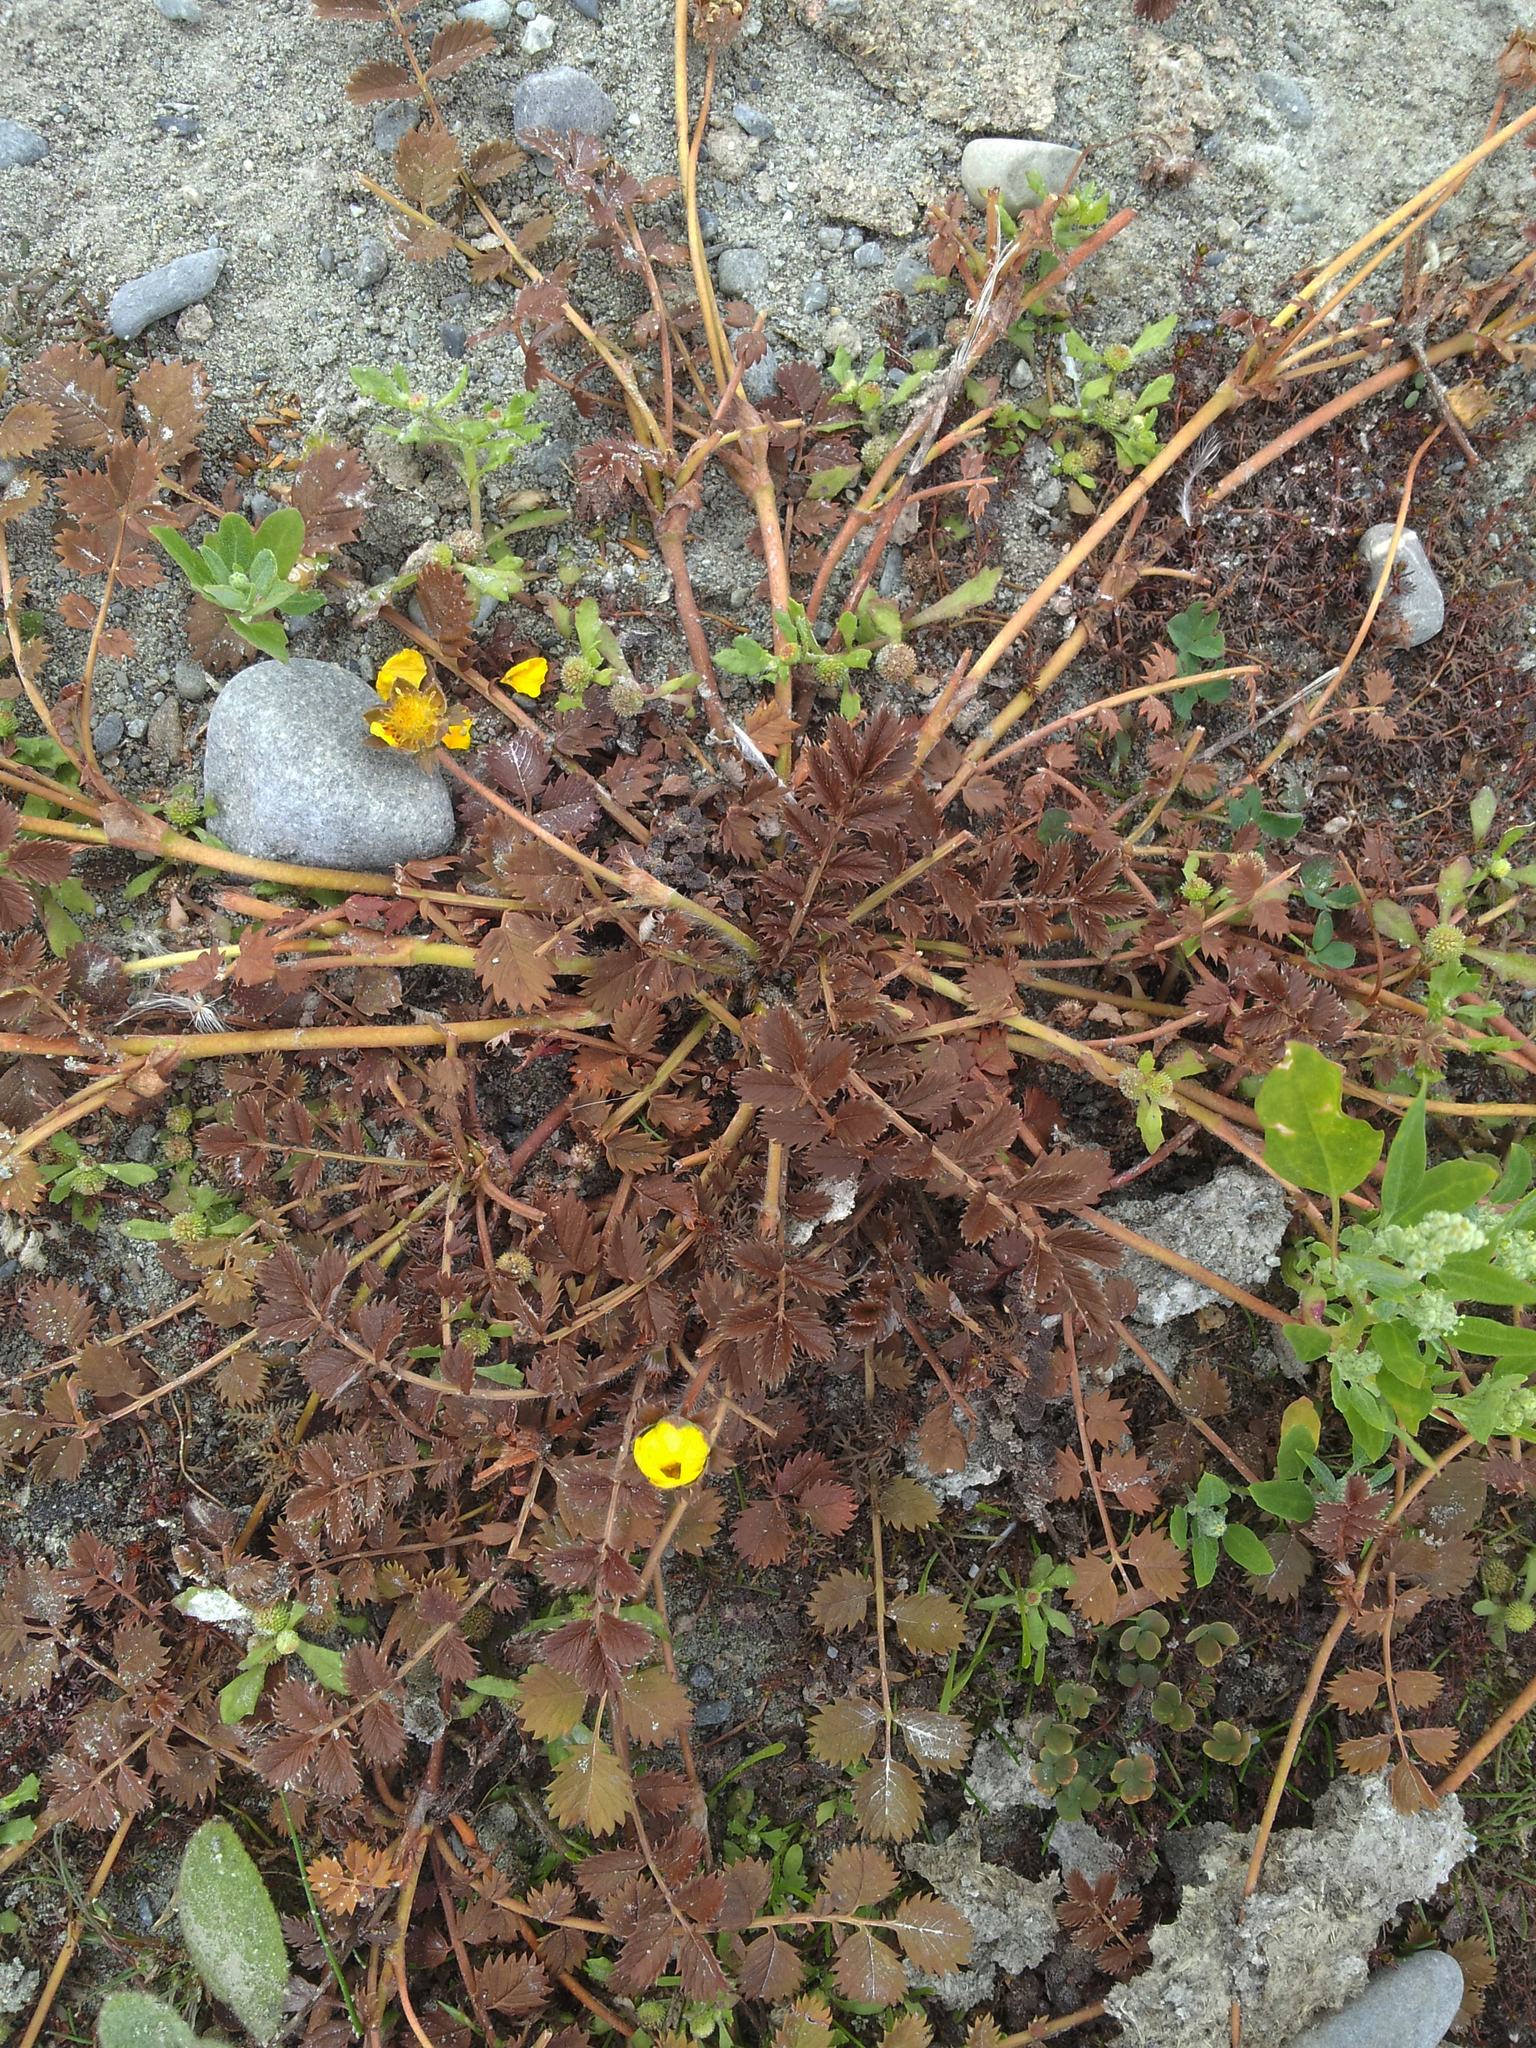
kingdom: Plantae
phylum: Tracheophyta
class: Magnoliopsida
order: Rosales
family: Rosaceae
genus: Argentina
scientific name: Argentina anserinoides
